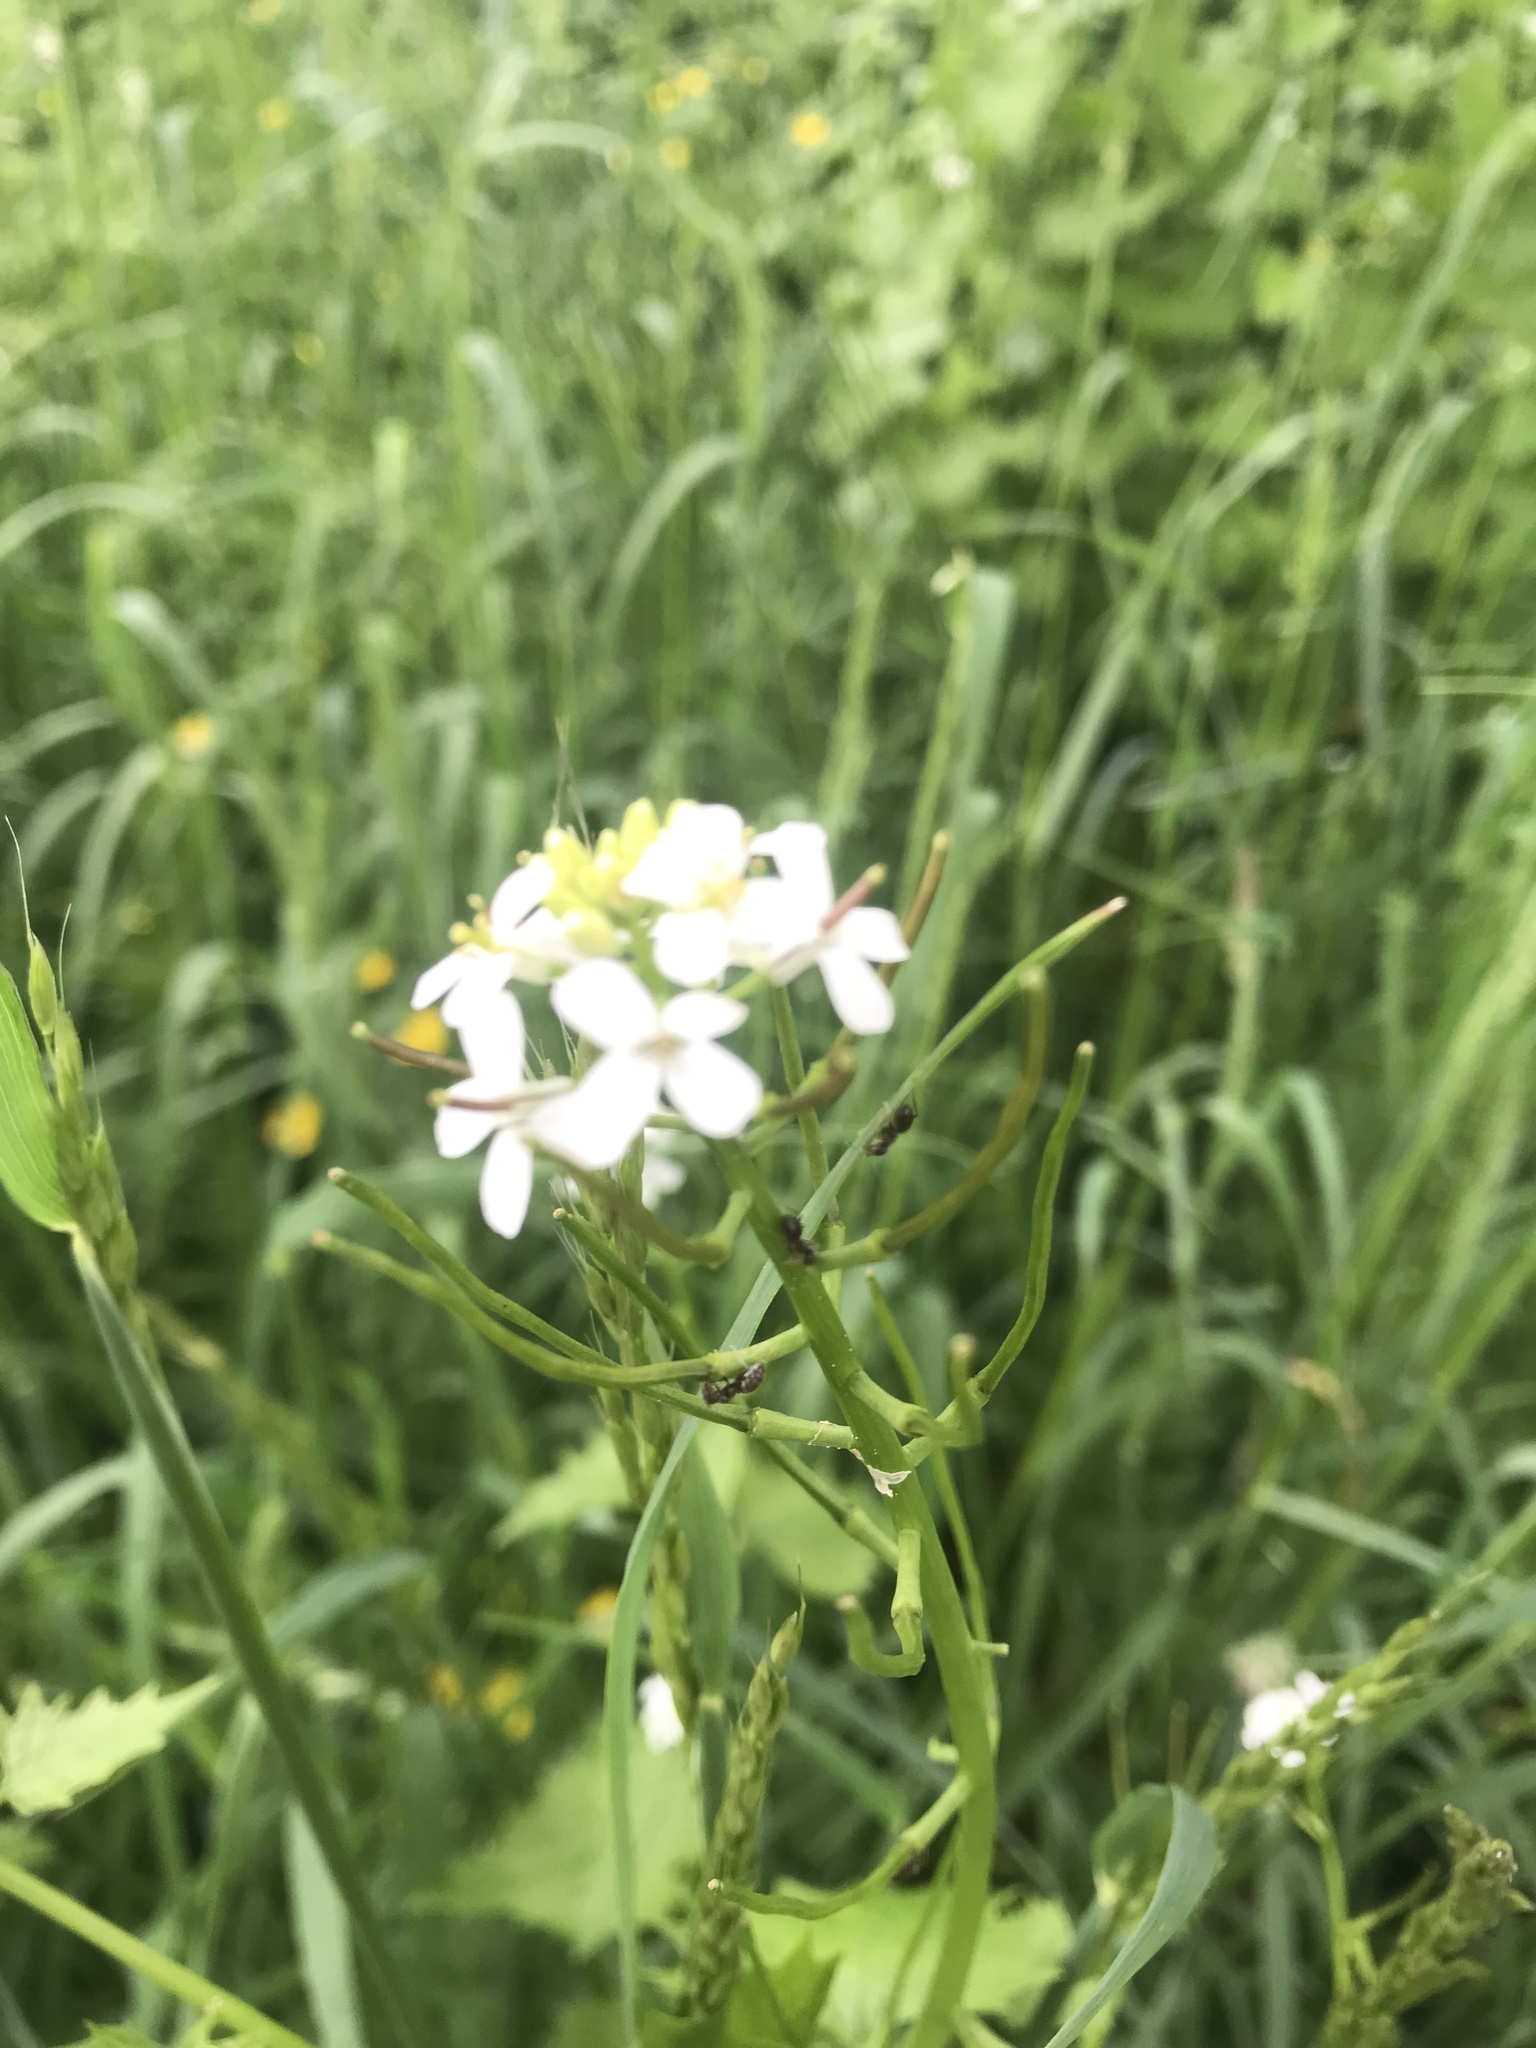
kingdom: Plantae
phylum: Tracheophyta
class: Magnoliopsida
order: Brassicales
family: Brassicaceae
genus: Alliaria
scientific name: Alliaria petiolata
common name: Garlic mustard
